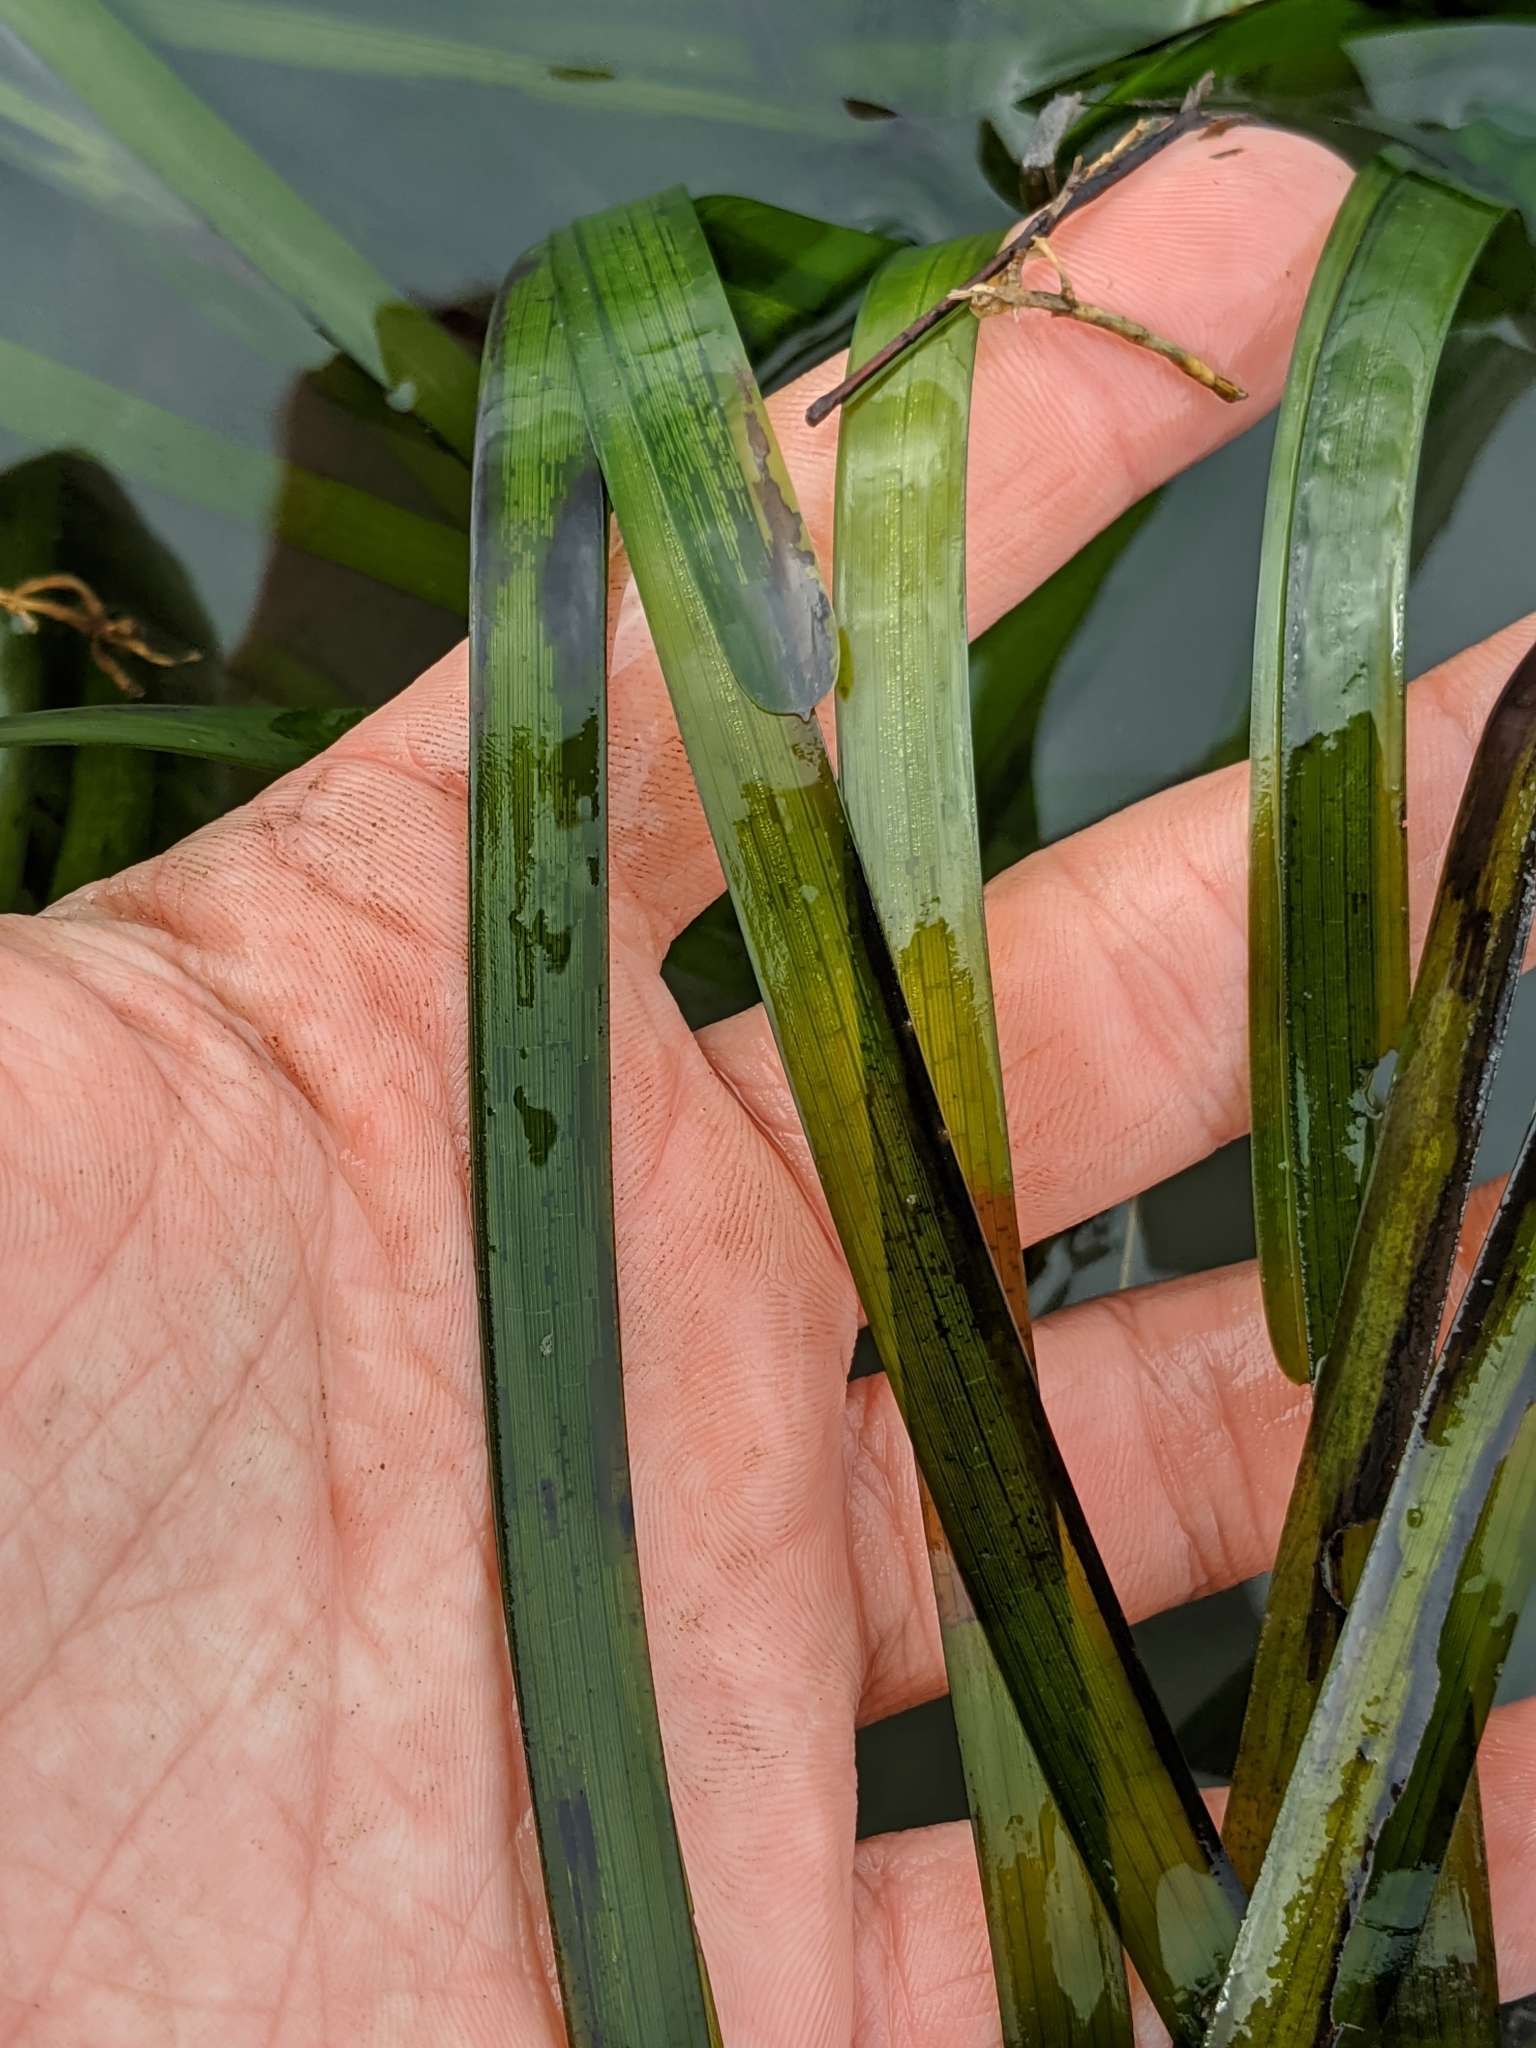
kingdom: Plantae
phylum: Tracheophyta
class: Liliopsida
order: Alismatales
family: Zosteraceae
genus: Zostera
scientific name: Zostera marina
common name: Eelgrass
